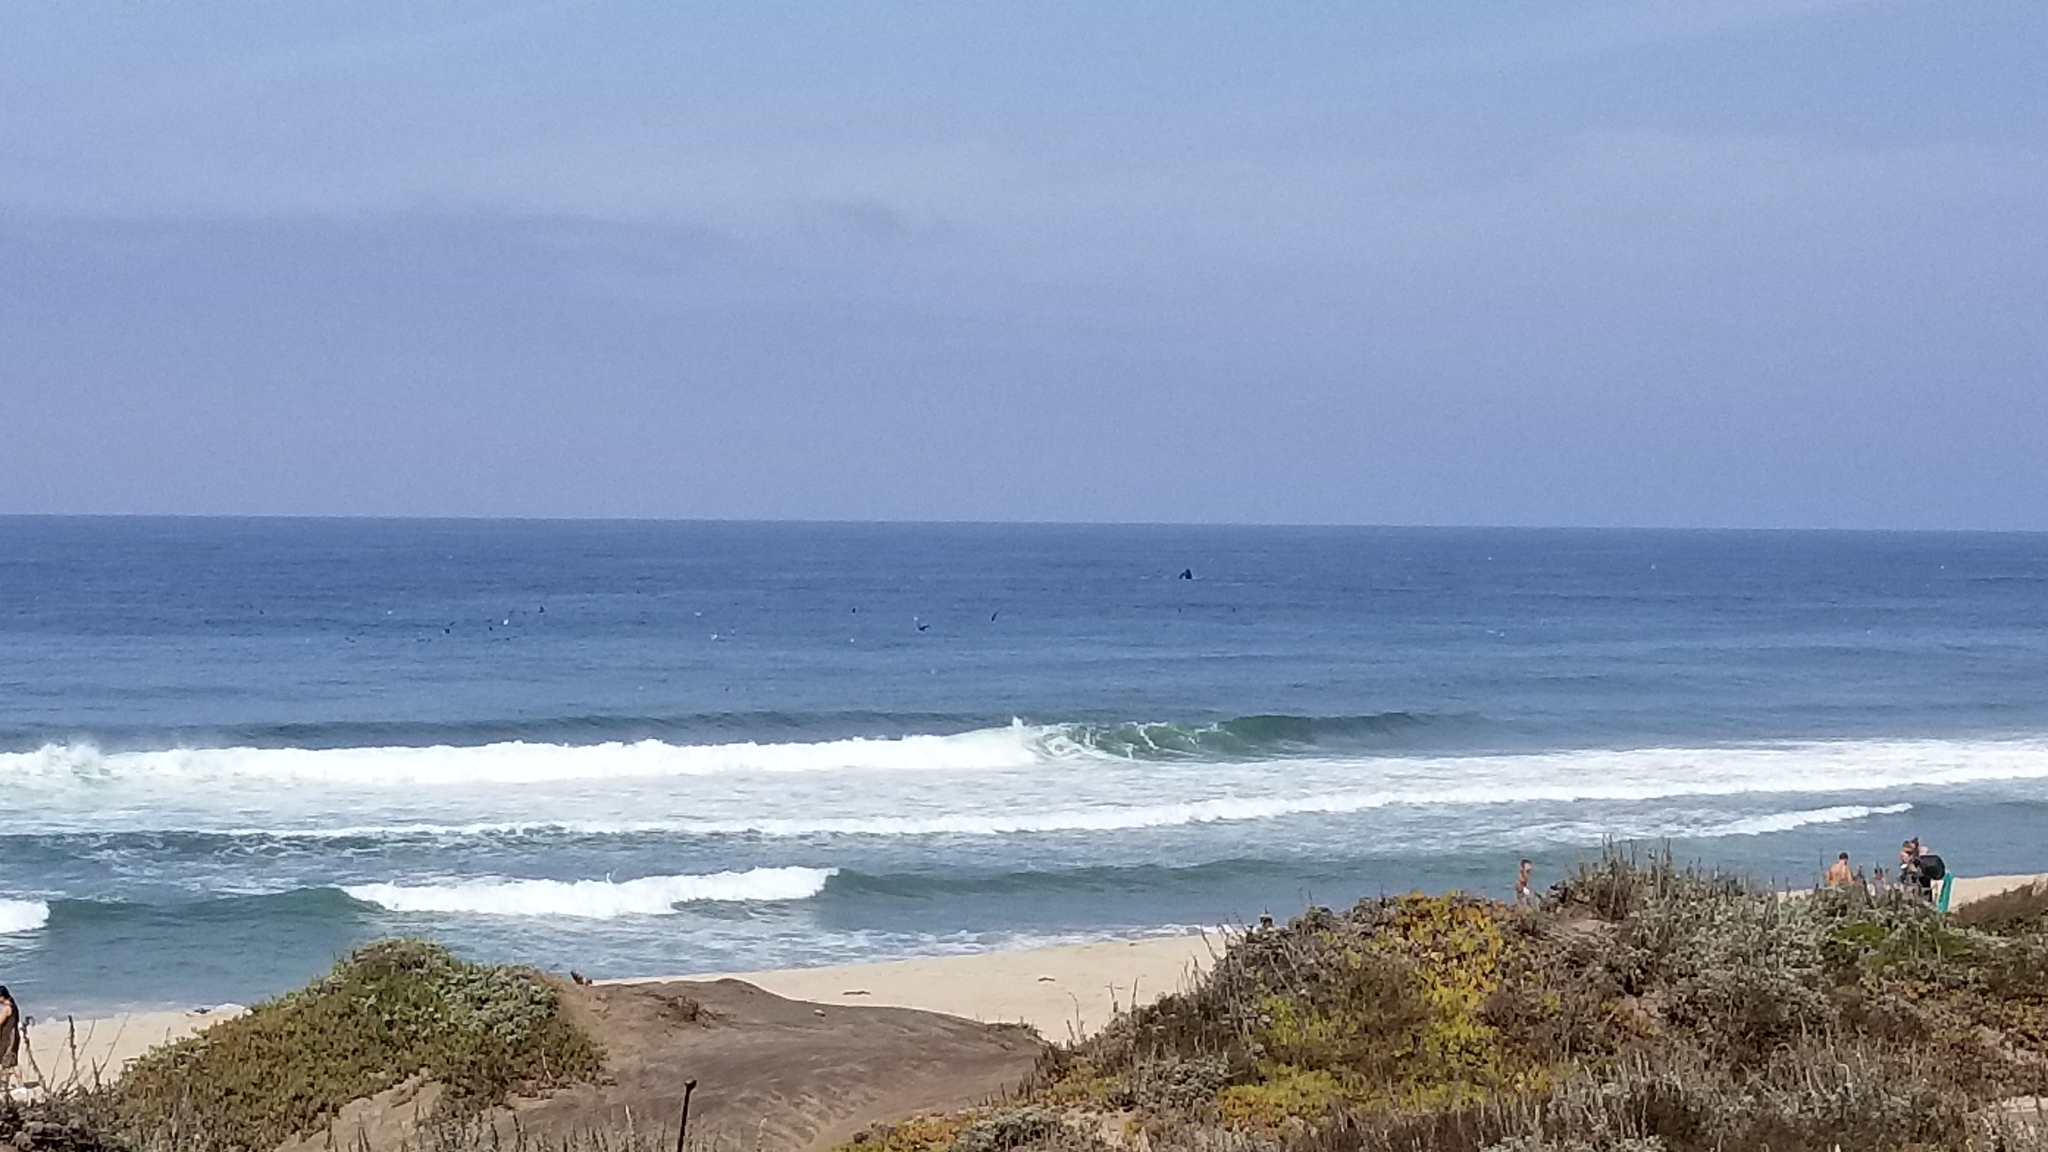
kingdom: Animalia
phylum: Chordata
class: Mammalia
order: Cetacea
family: Balaenopteridae
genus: Megaptera
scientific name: Megaptera novaeangliae
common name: Humpback whale
